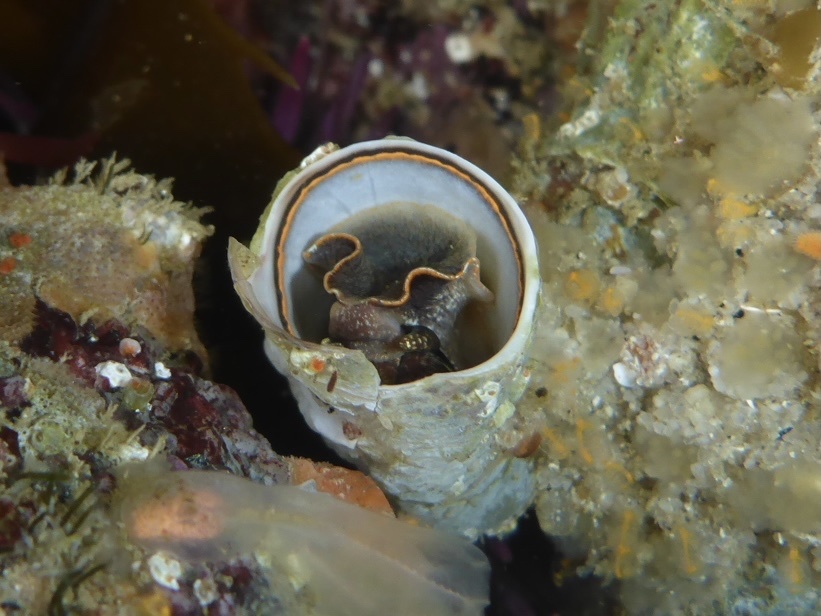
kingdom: Animalia
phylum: Mollusca
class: Gastropoda
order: Littorinimorpha
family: Vermetidae
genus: Thylacodes
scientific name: Thylacodes squamigerus
